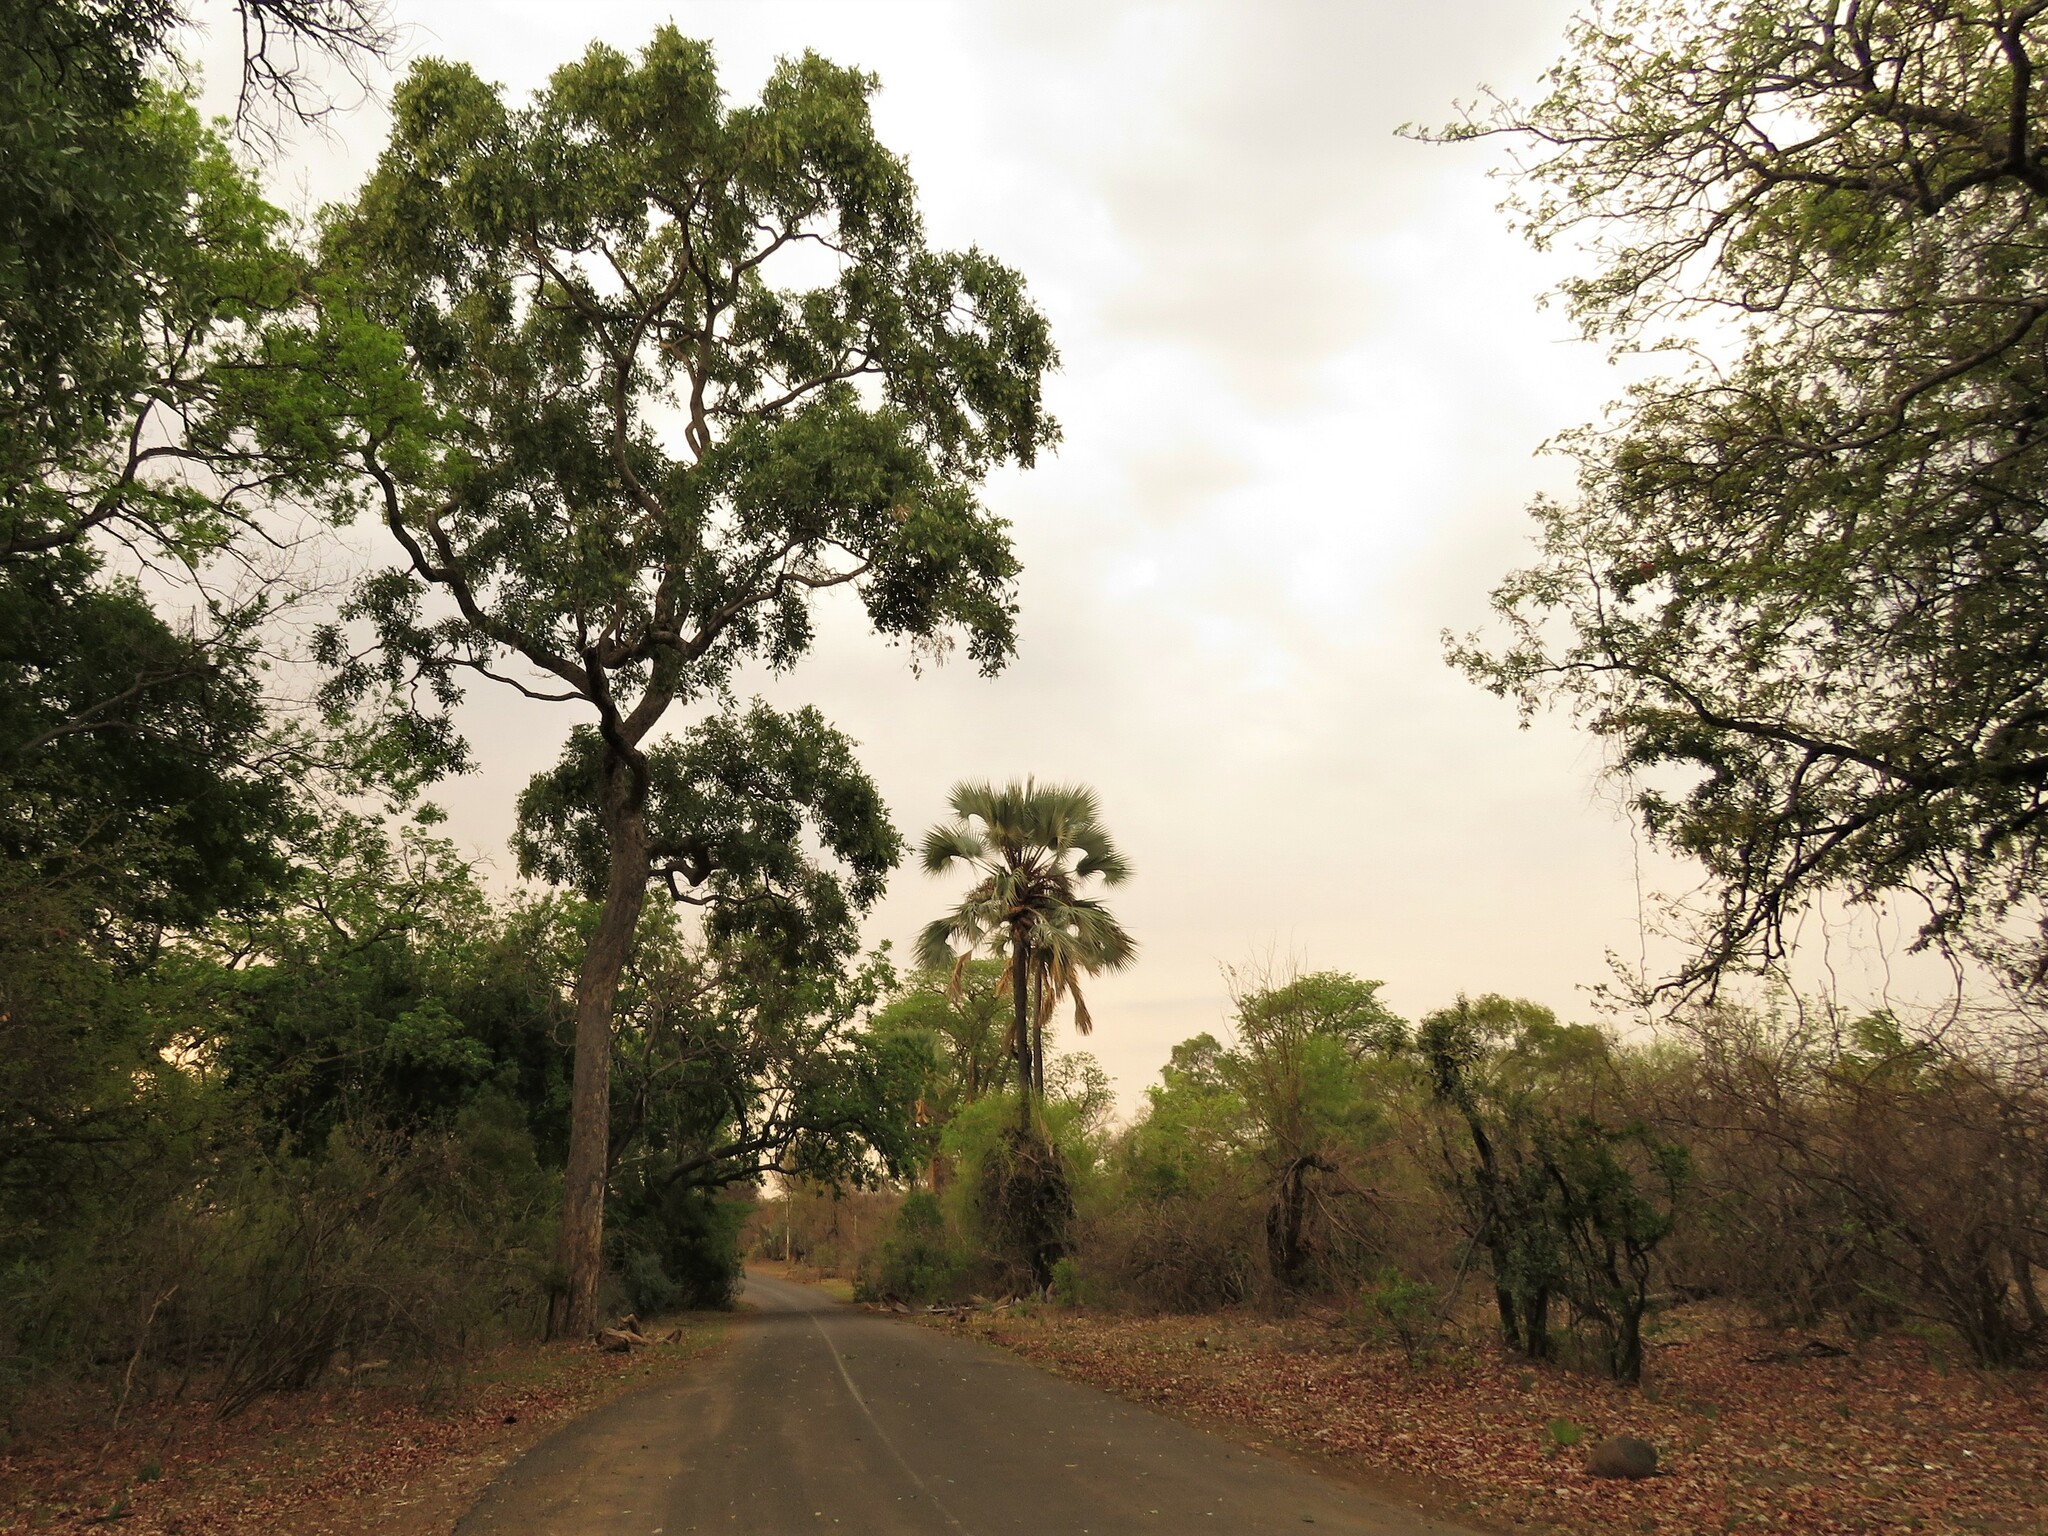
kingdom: Plantae
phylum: Tracheophyta
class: Liliopsida
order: Arecales
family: Arecaceae
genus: Hyphaene
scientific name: Hyphaene petersiana
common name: African ivory nut palm
